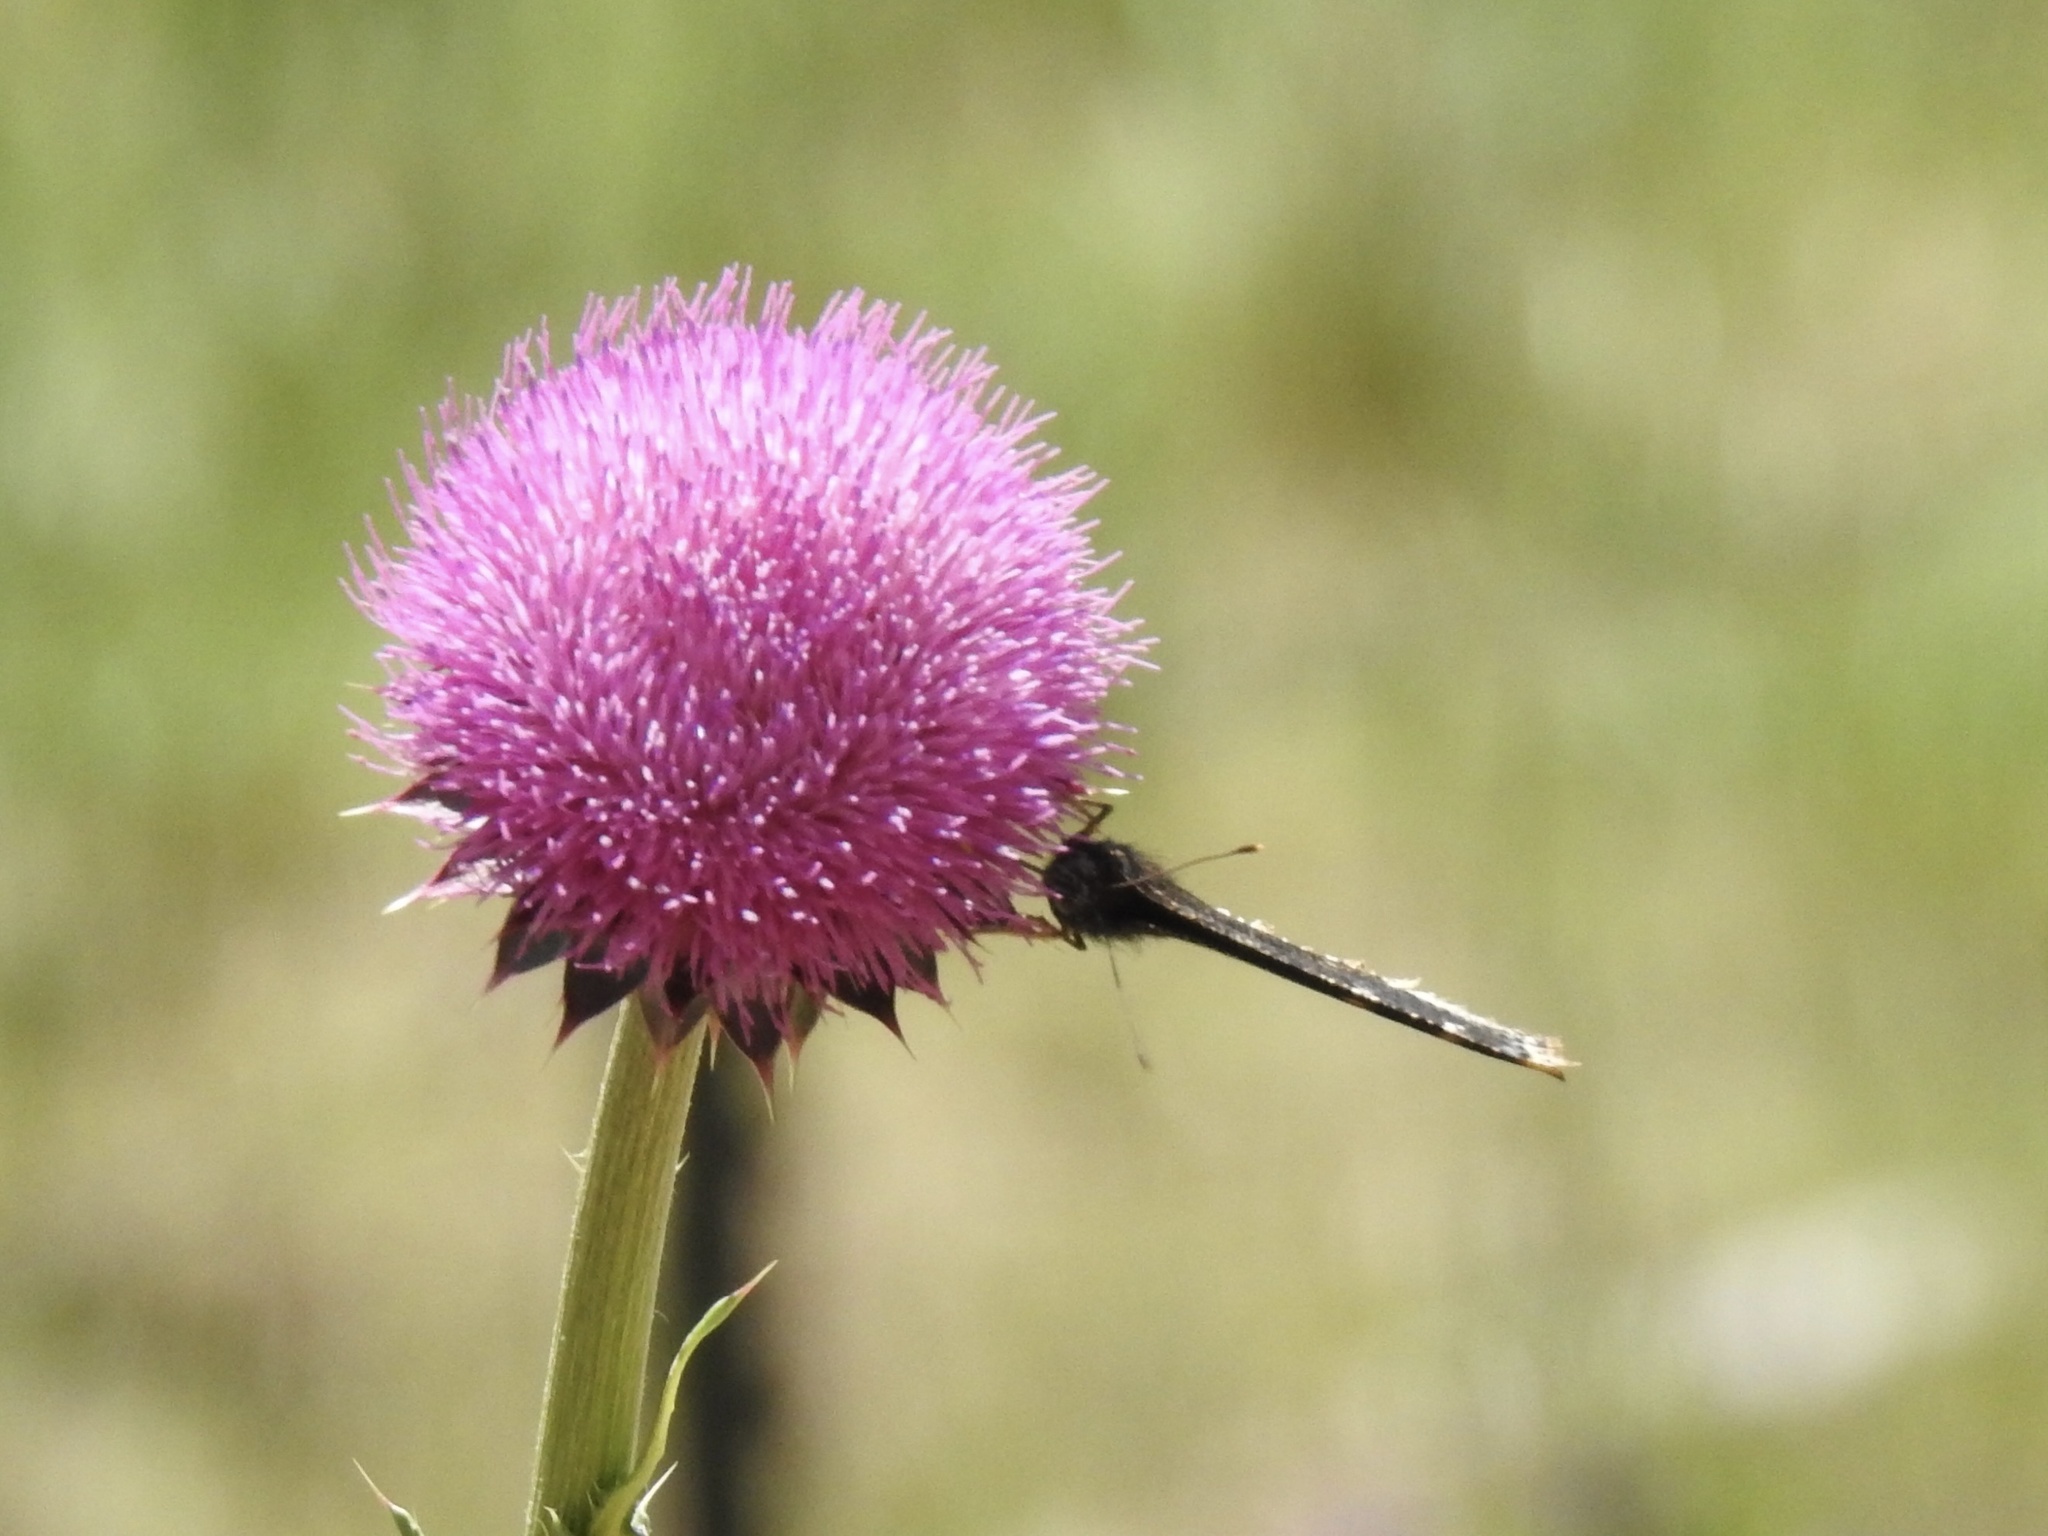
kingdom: Animalia
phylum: Arthropoda
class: Insecta
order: Lepidoptera
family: Nymphalidae
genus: Nymphalis
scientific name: Nymphalis antiopa
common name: Camberwell beauty
